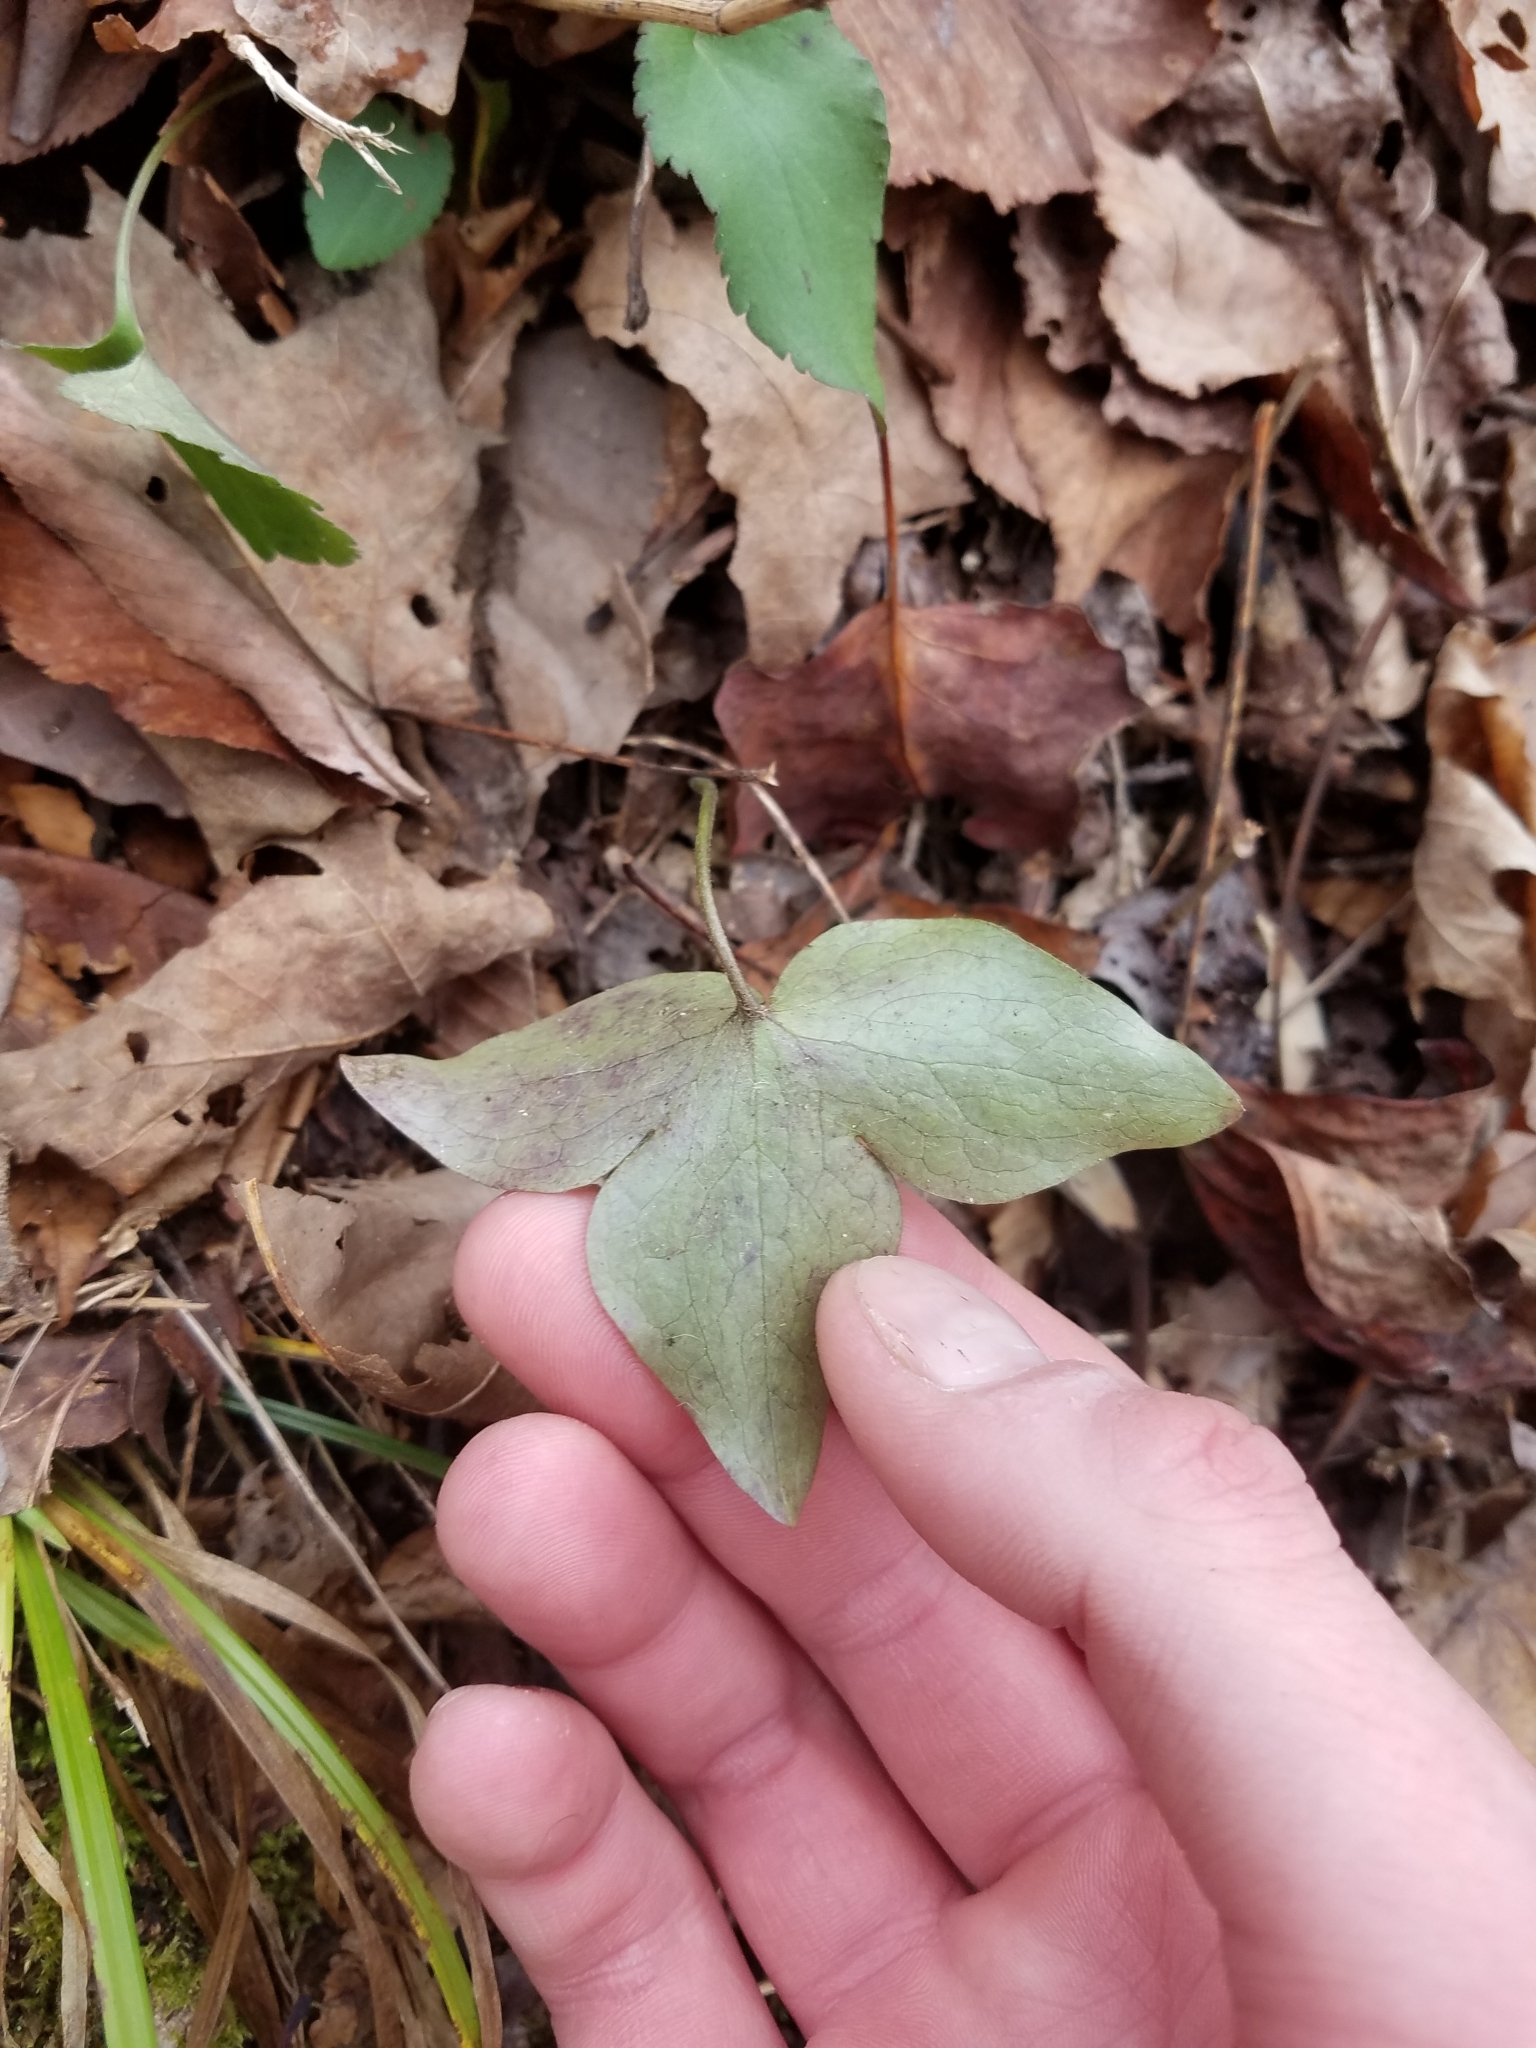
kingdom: Plantae
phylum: Tracheophyta
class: Magnoliopsida
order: Ranunculales
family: Ranunculaceae
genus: Hepatica
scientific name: Hepatica acutiloba
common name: Sharp-lobed hepatica
